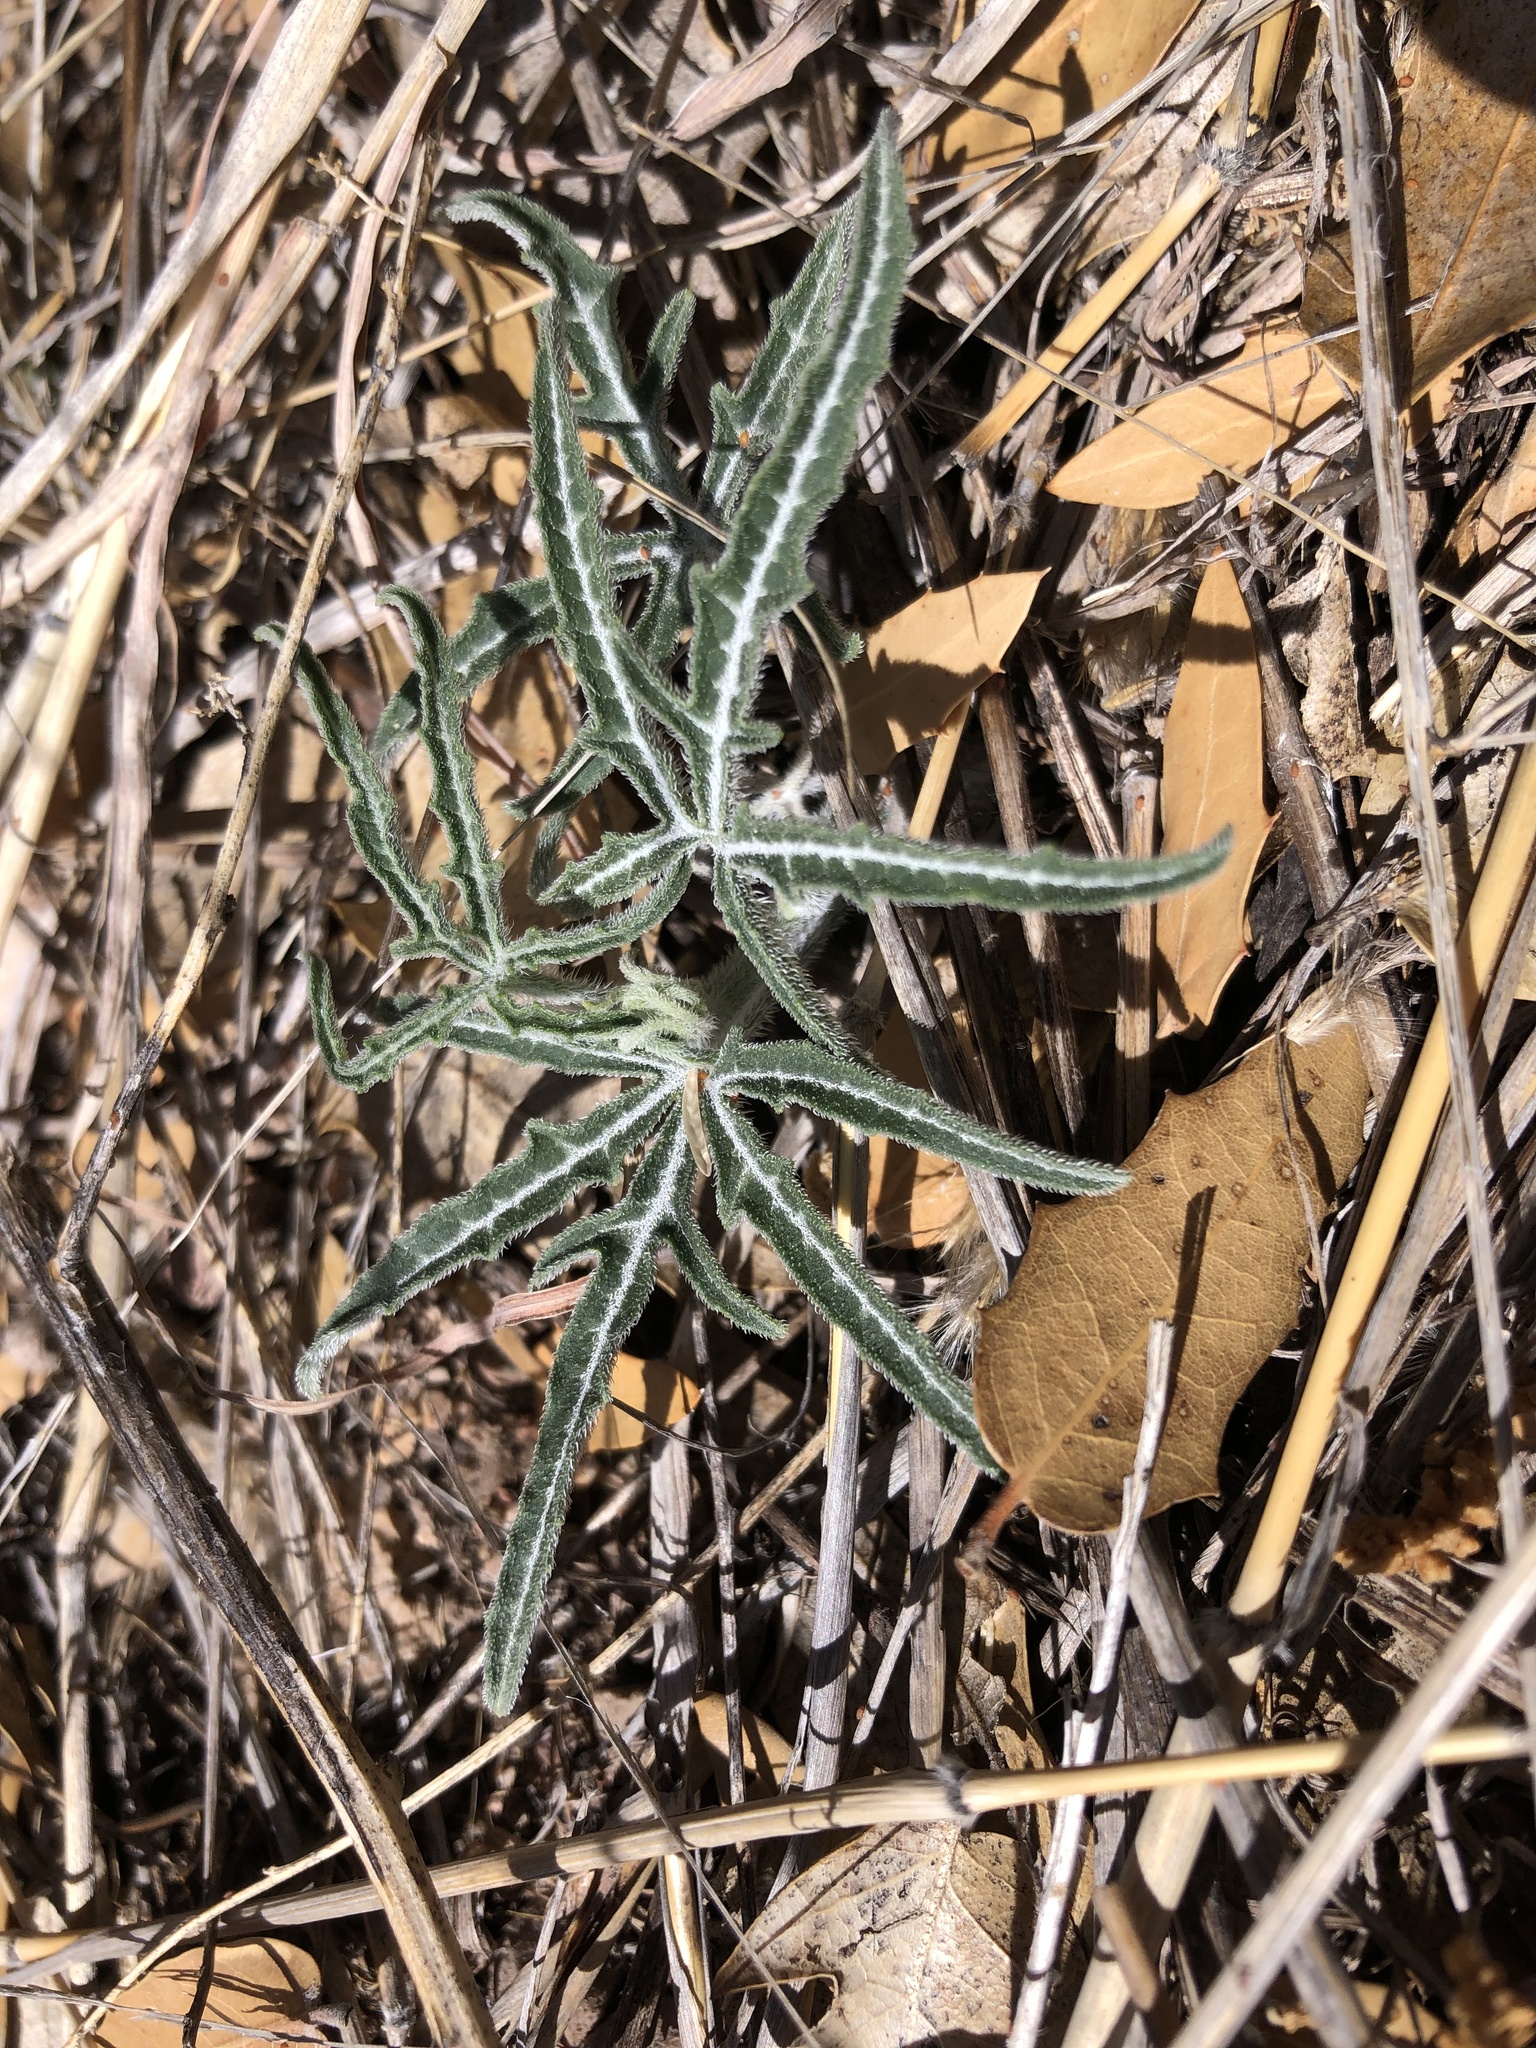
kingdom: Plantae
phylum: Tracheophyta
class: Magnoliopsida
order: Cucurbitales
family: Cucurbitaceae
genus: Cucurbita
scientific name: Cucurbita digitata
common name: Finger-leaf gourd
